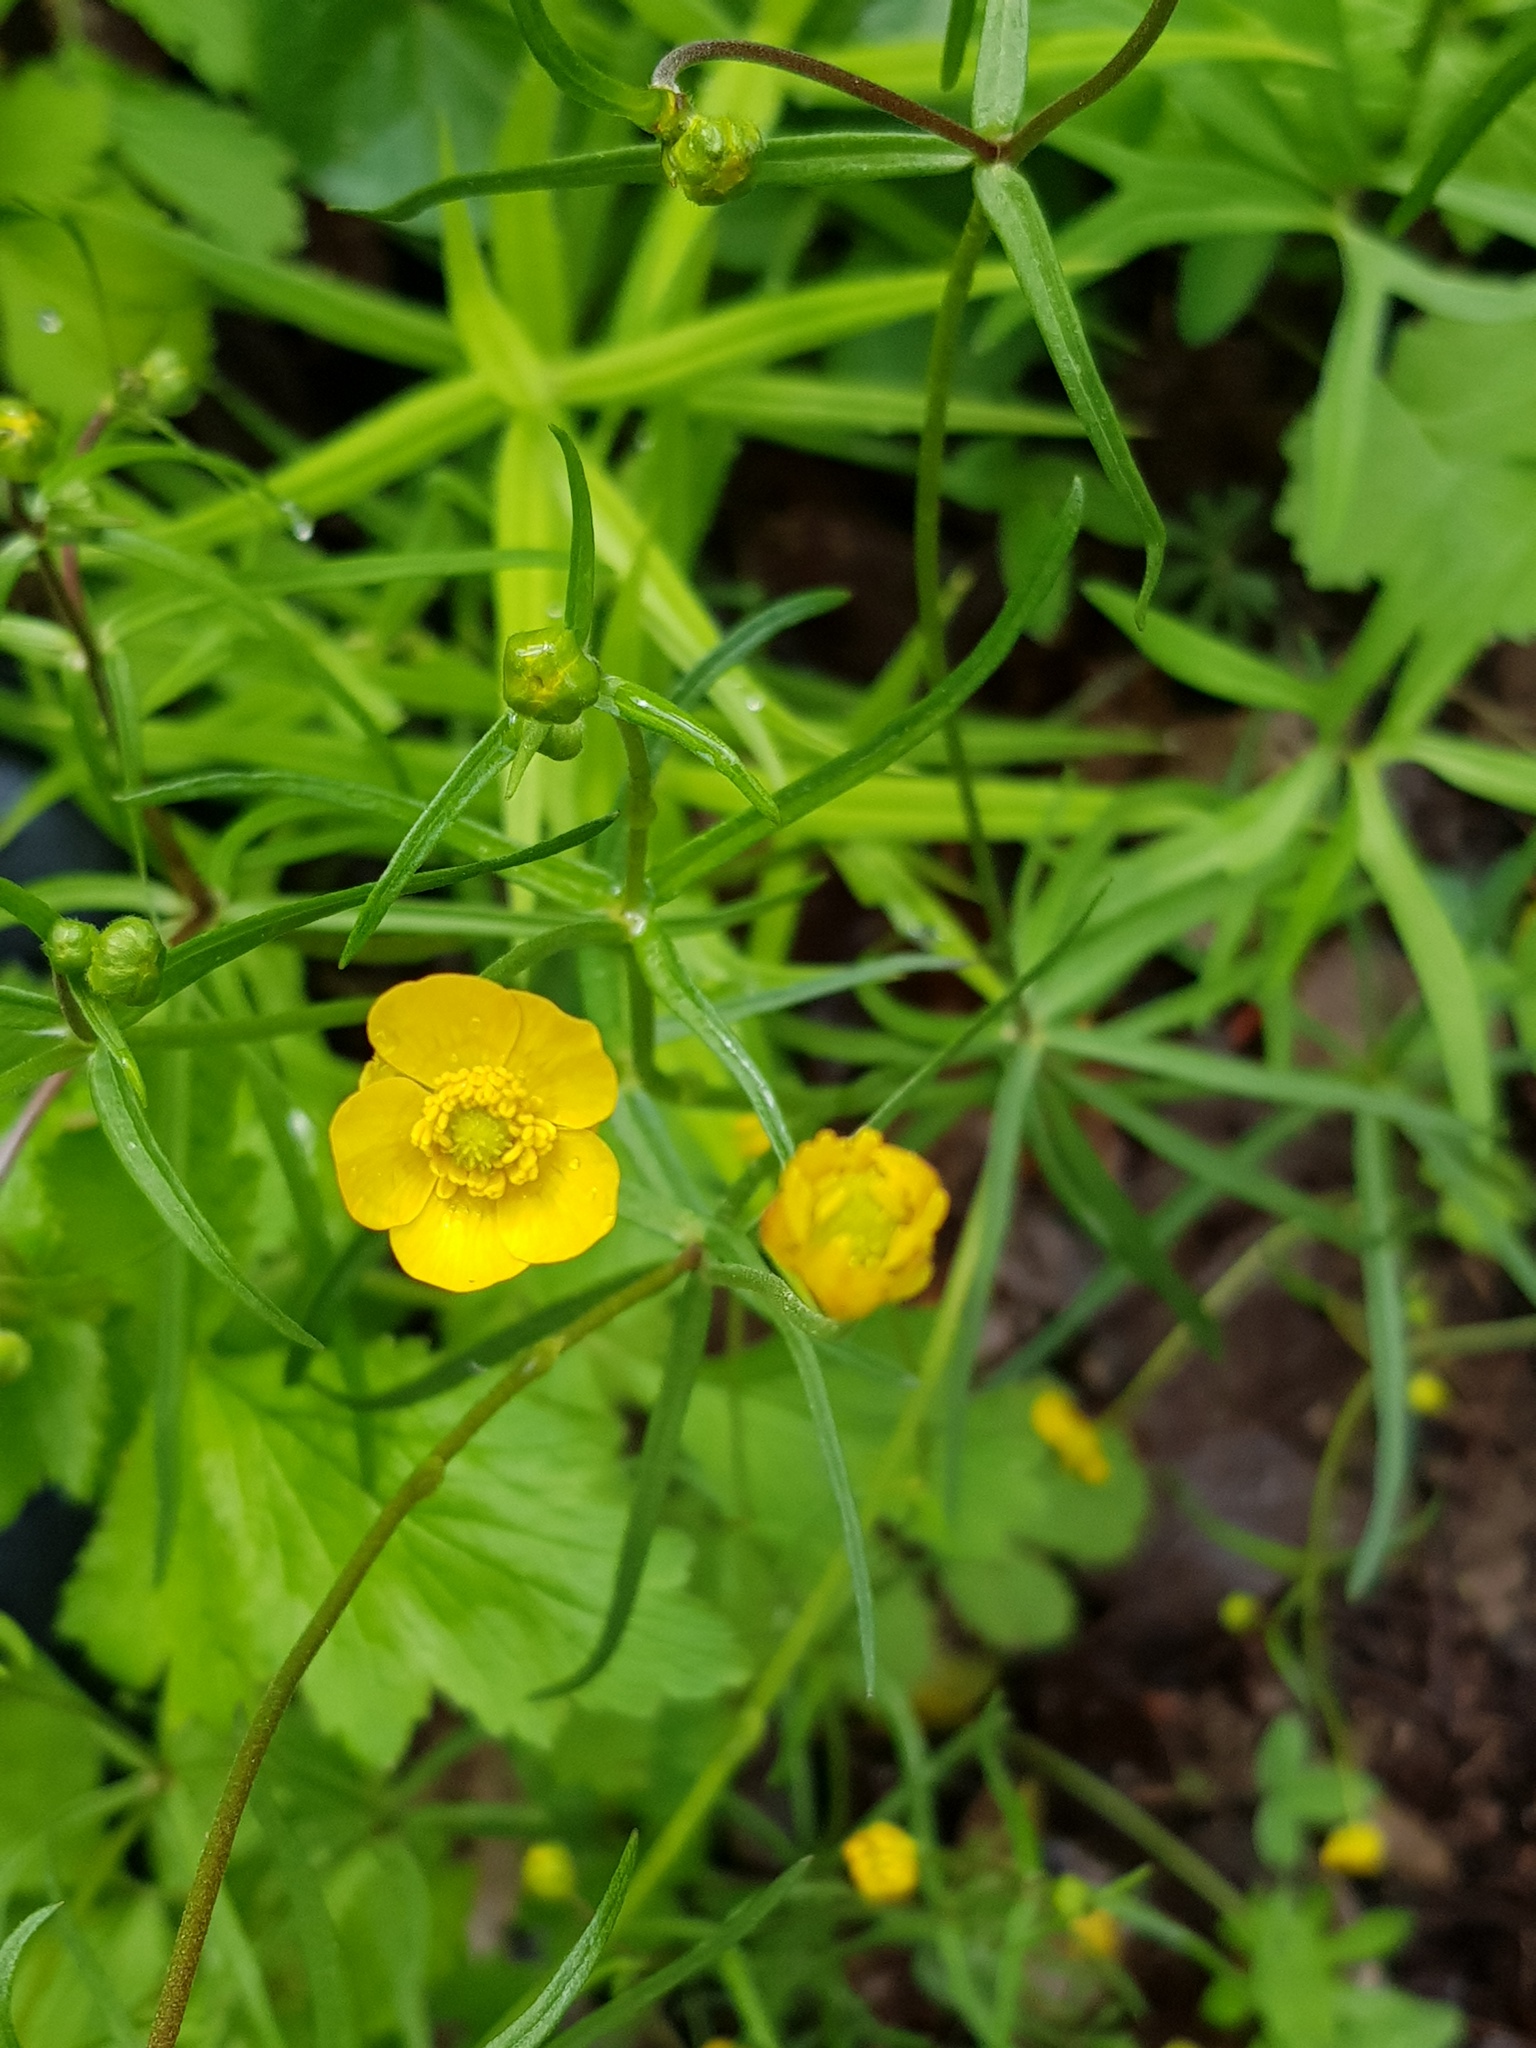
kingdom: Plantae
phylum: Tracheophyta
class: Magnoliopsida
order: Ranunculales
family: Ranunculaceae
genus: Ranunculus
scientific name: Ranunculus auricomus
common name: Goldilocks buttercup
